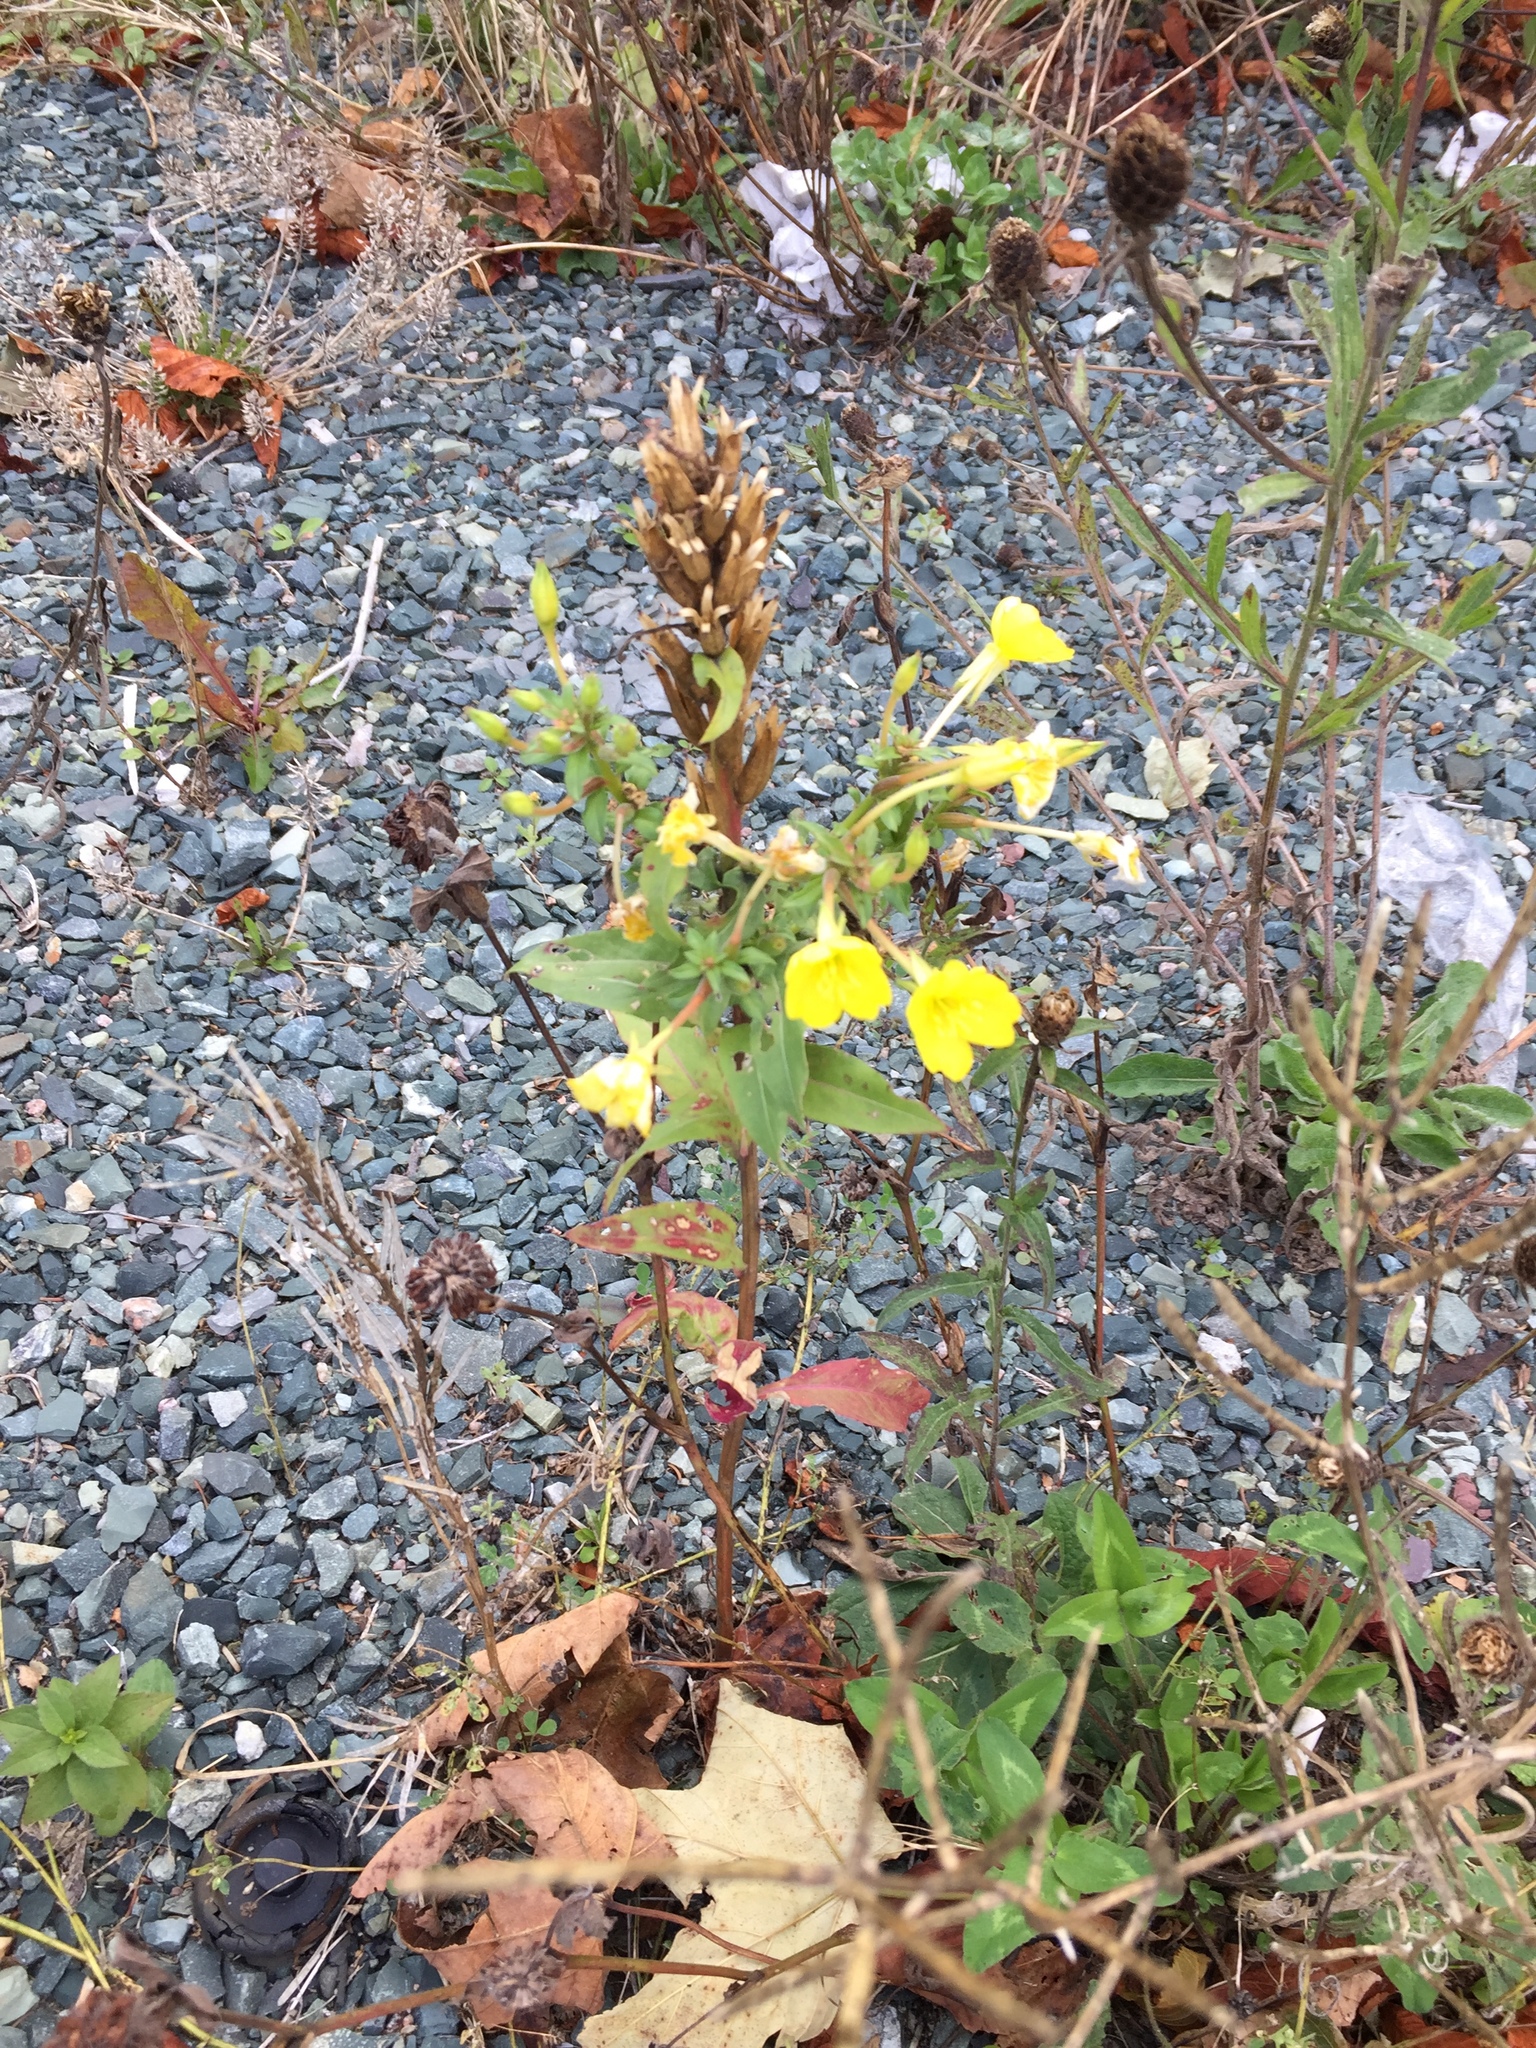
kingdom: Plantae
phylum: Tracheophyta
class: Magnoliopsida
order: Myrtales
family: Onagraceae
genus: Oenothera
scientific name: Oenothera biennis
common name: Common evening-primrose
